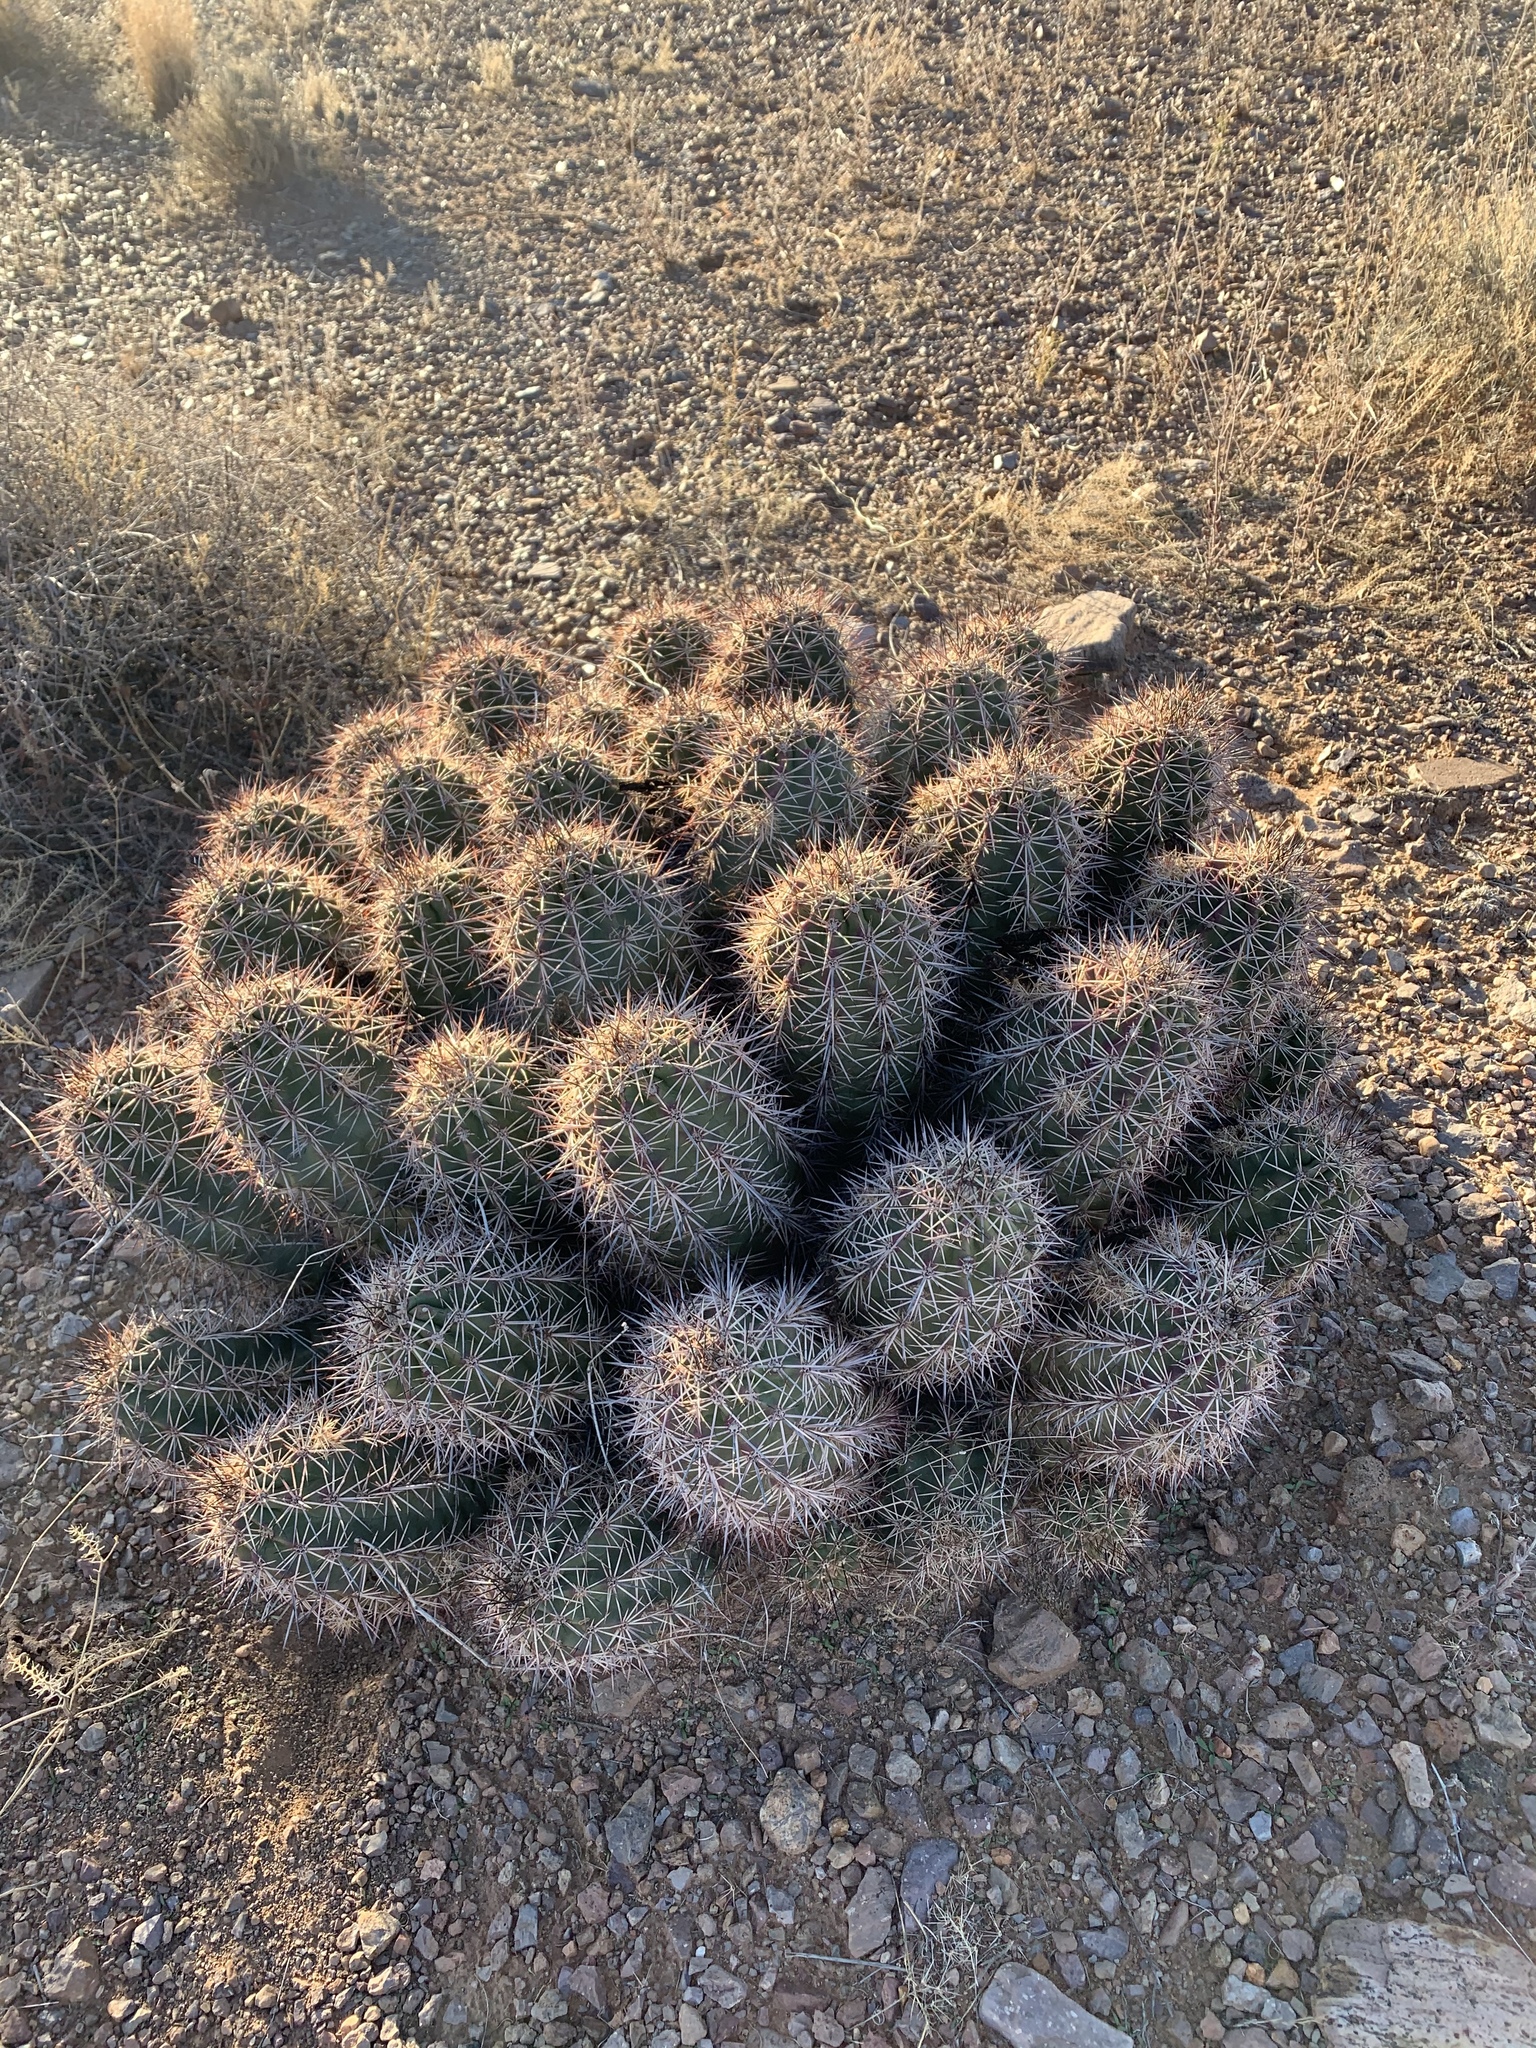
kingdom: Plantae
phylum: Tracheophyta
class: Magnoliopsida
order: Caryophyllales
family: Cactaceae
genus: Echinocereus
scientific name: Echinocereus coccineus
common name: Scarlet hedgehog cactus
